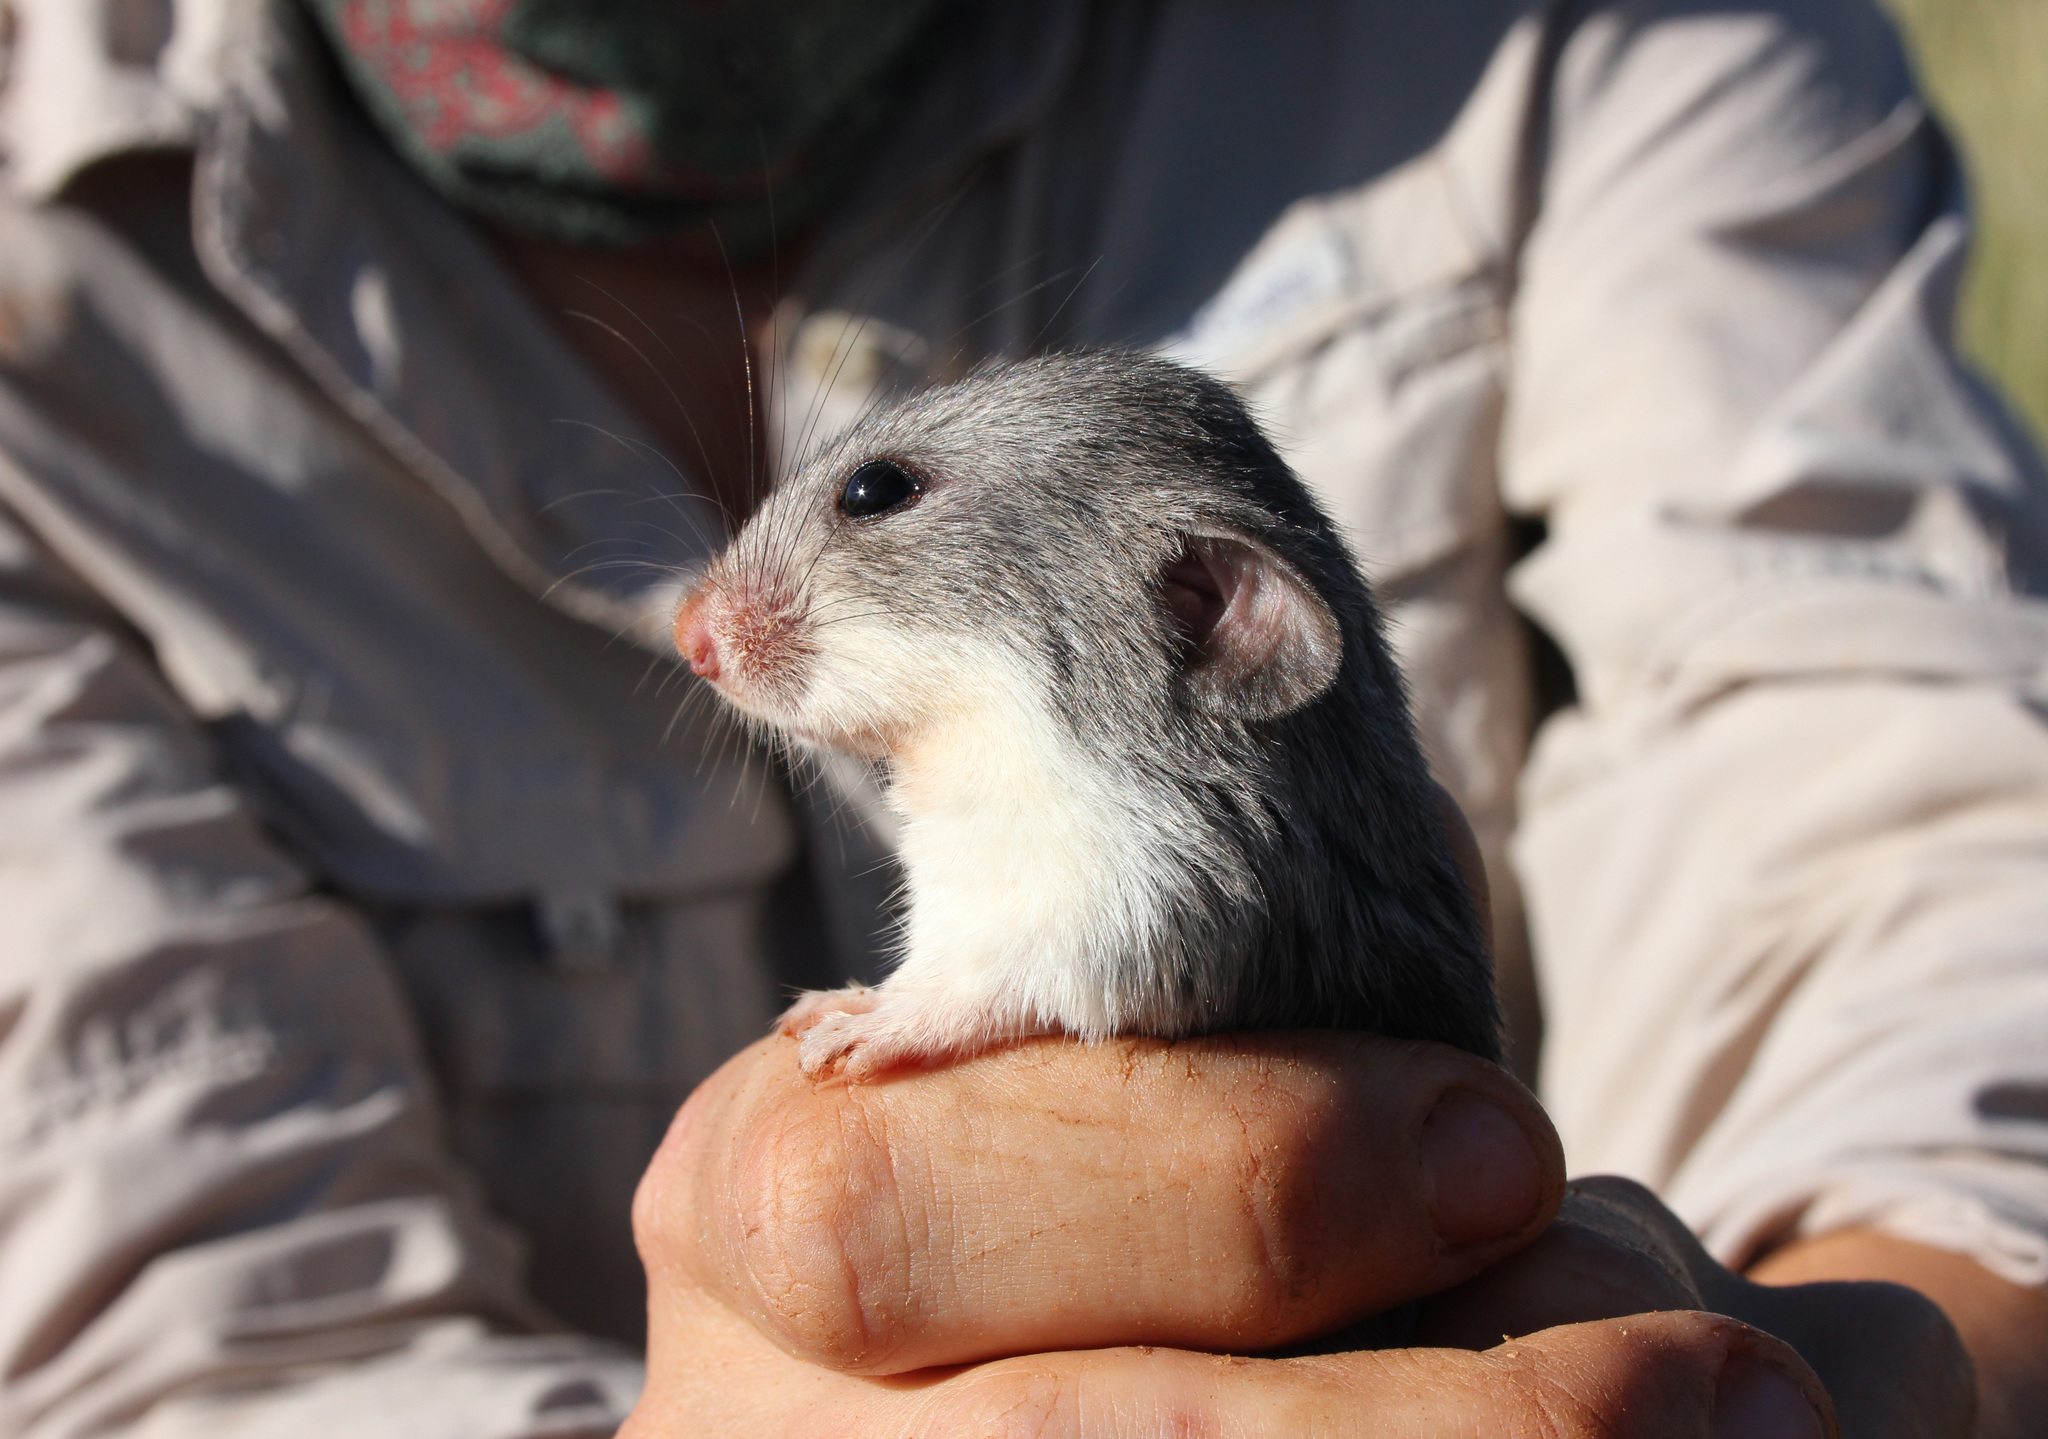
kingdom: Animalia
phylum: Chordata
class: Mammalia
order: Rodentia
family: Nesomyidae
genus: Saccostomus
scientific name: Saccostomus campestris
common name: Southern african pouched mouse
